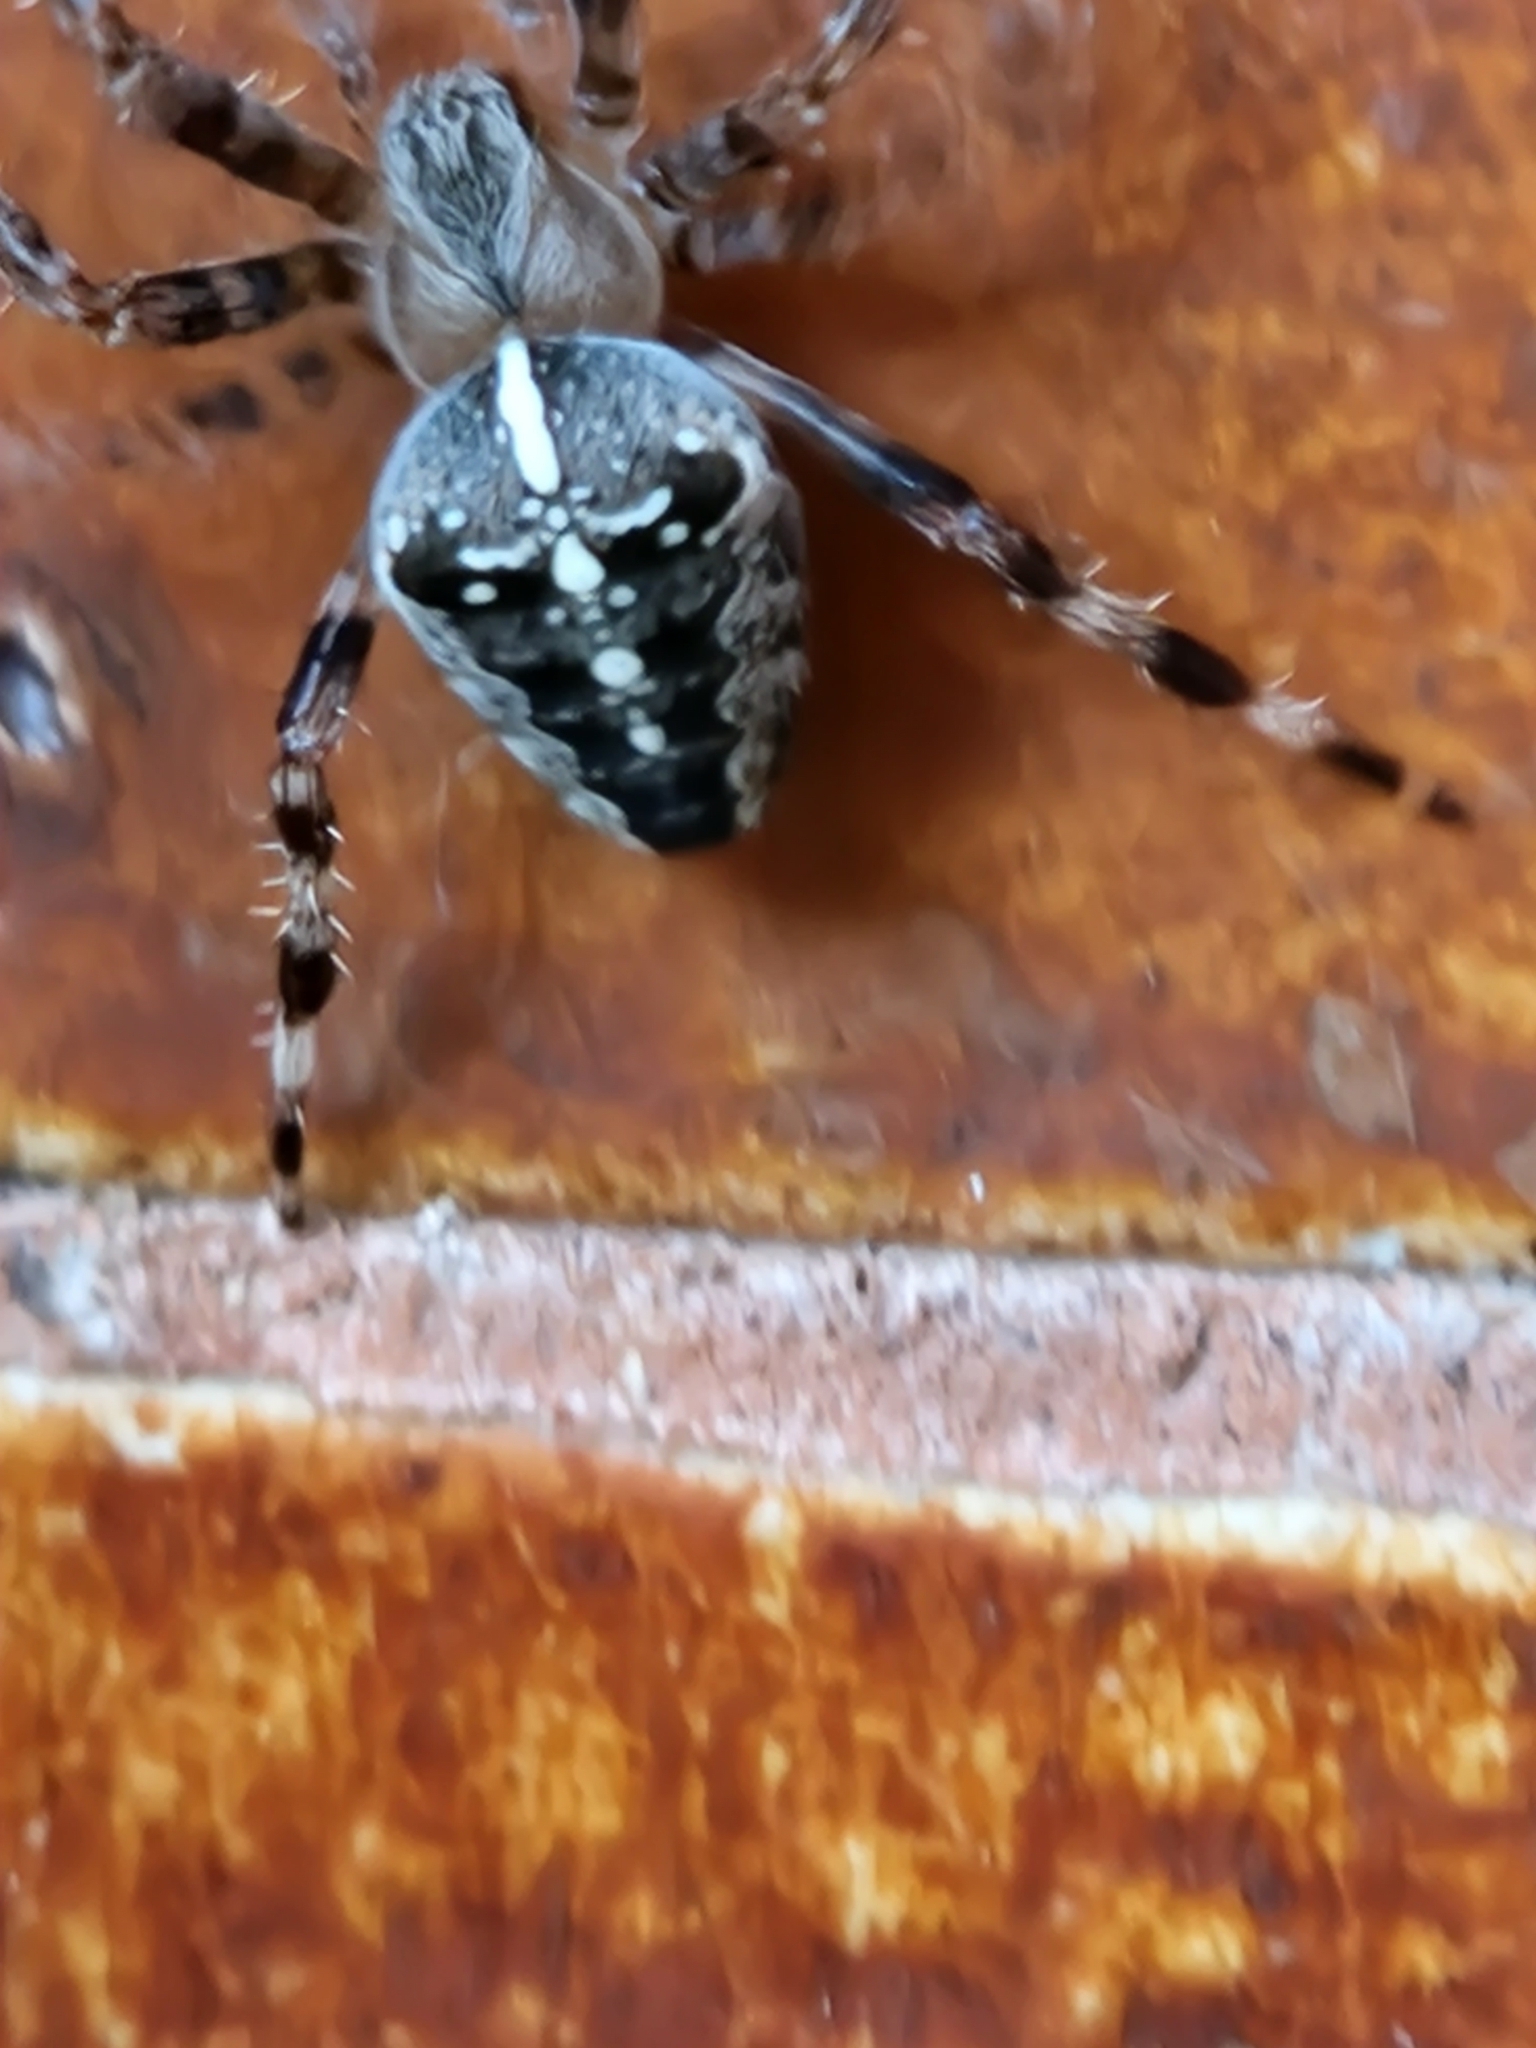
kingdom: Animalia
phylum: Arthropoda
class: Arachnida
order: Araneae
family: Araneidae
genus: Araneus
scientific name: Araneus diadematus
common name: Cross orbweaver
